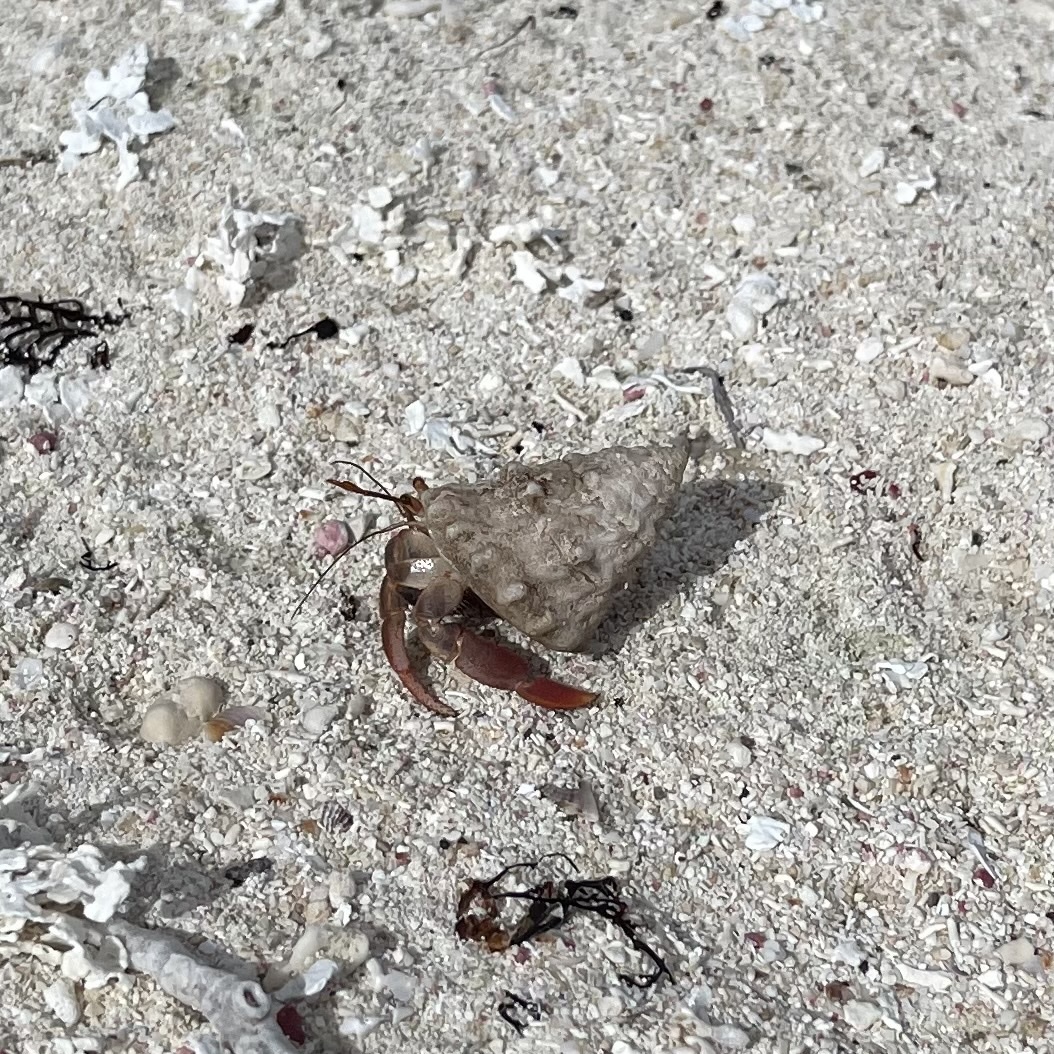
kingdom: Animalia
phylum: Arthropoda
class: Malacostraca
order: Decapoda
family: Coenobitidae
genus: Coenobita
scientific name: Coenobita clypeatus
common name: Caribbean hermit crab
